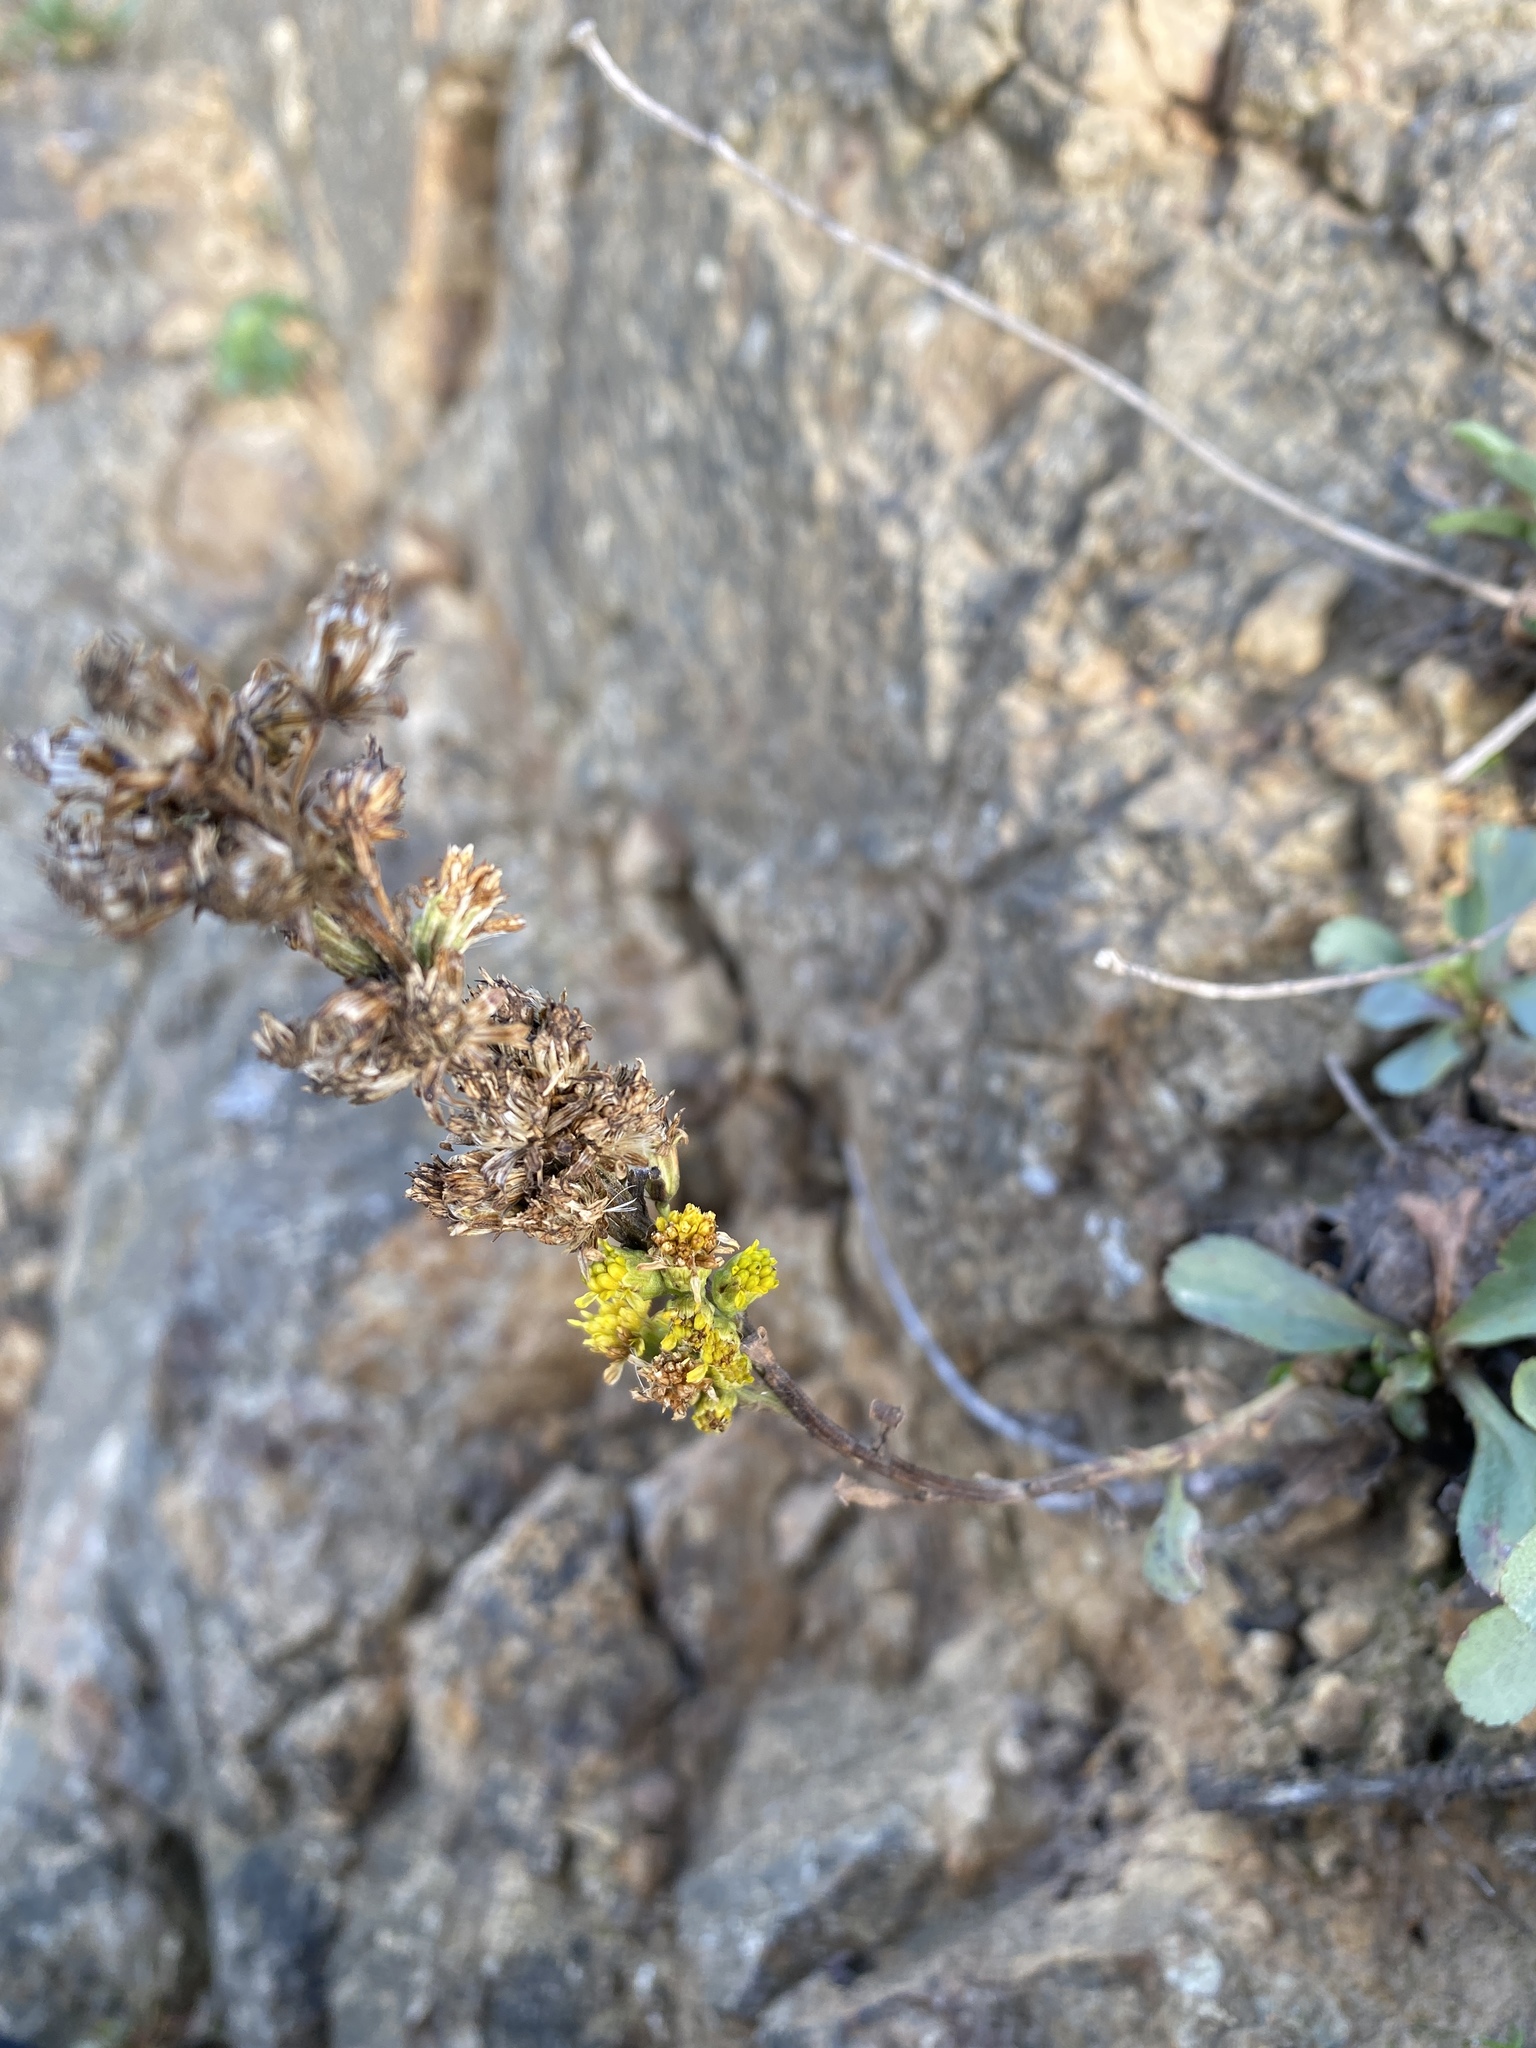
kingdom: Plantae
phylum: Tracheophyta
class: Magnoliopsida
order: Asterales
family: Asteraceae
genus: Solidago
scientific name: Solidago spathulata
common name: Coast goldenrod
